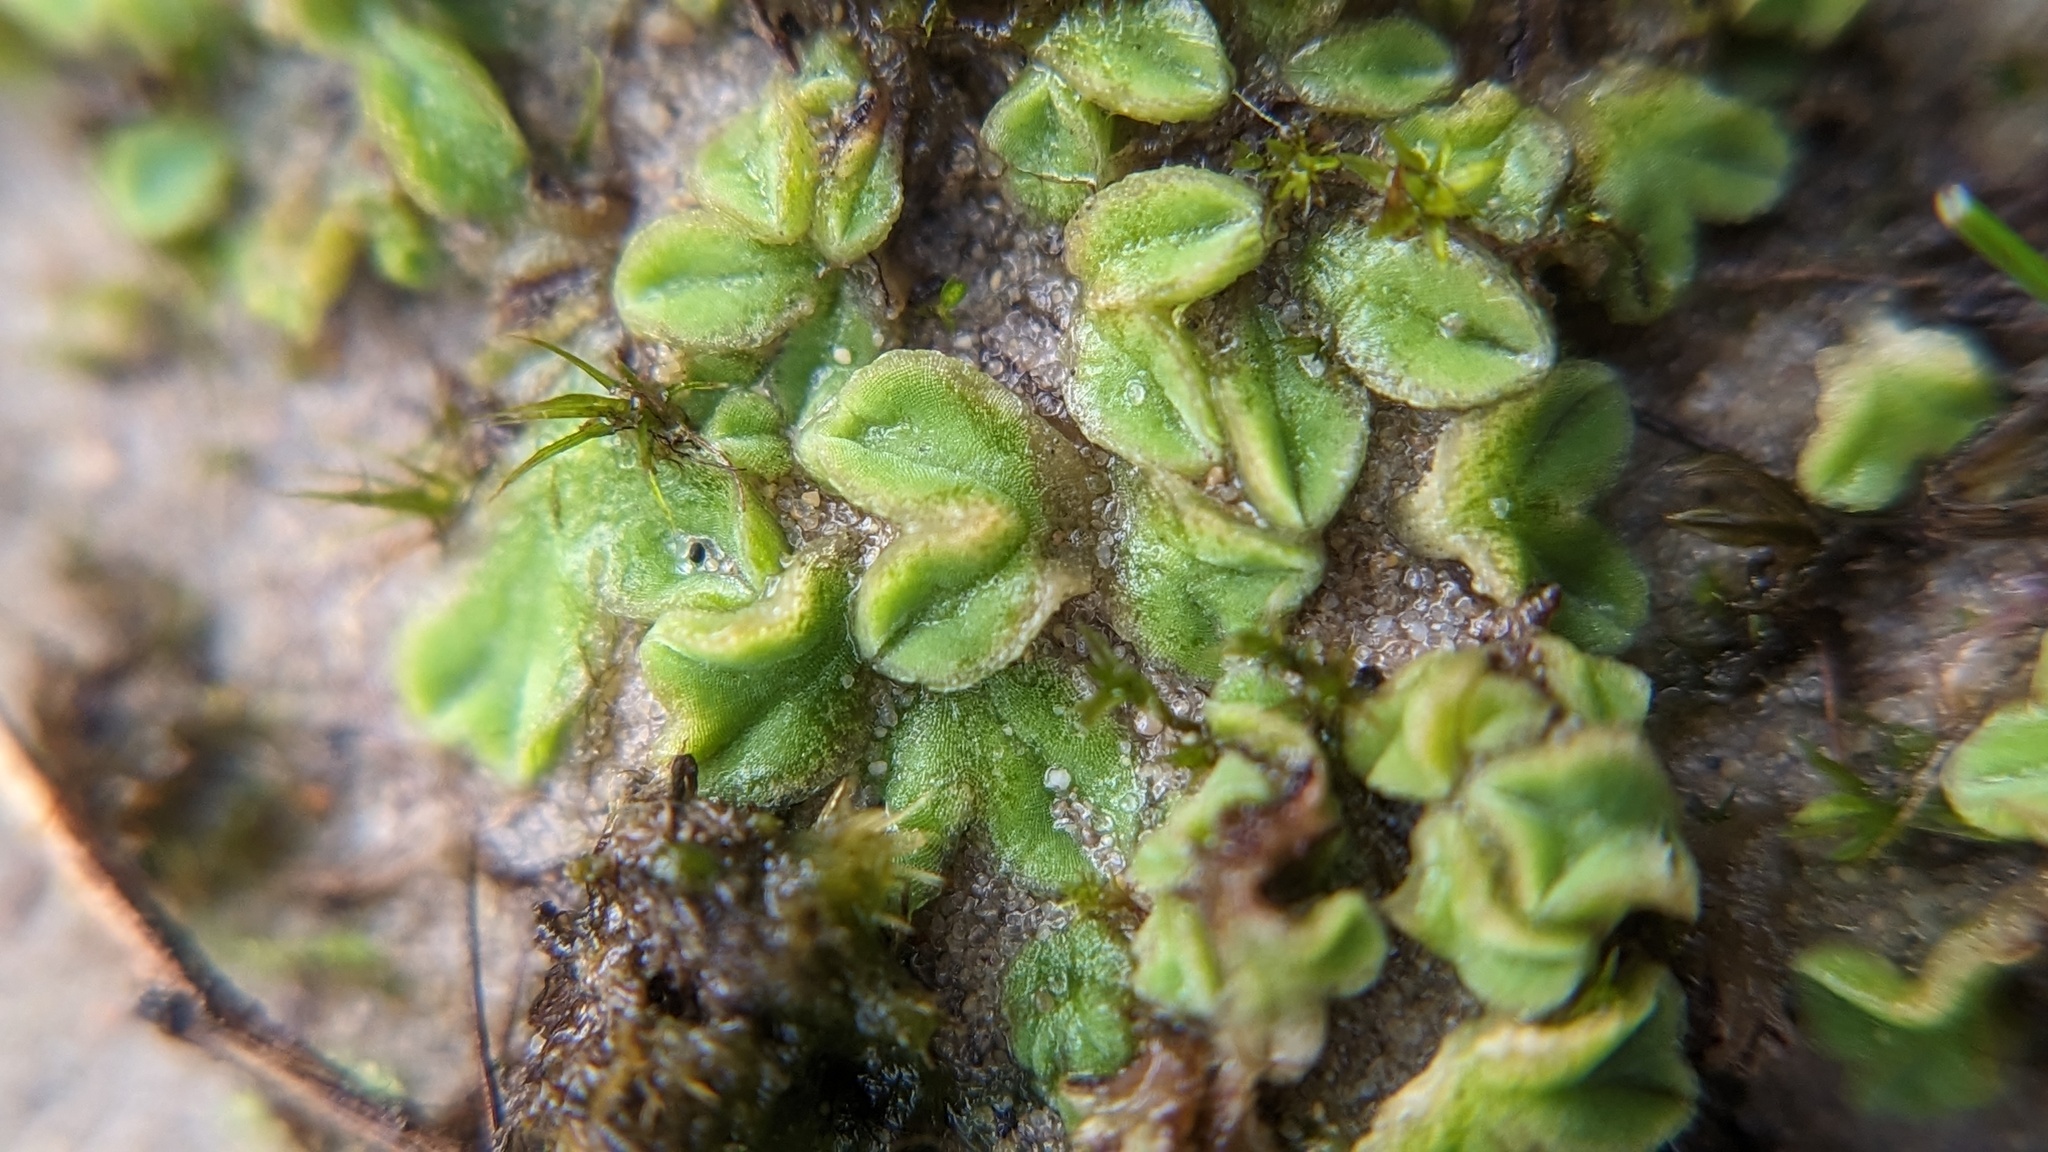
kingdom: Plantae
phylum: Marchantiophyta
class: Marchantiopsida
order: Marchantiales
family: Ricciaceae
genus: Riccia
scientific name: Riccia sorocarpa
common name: Common crystalwort
